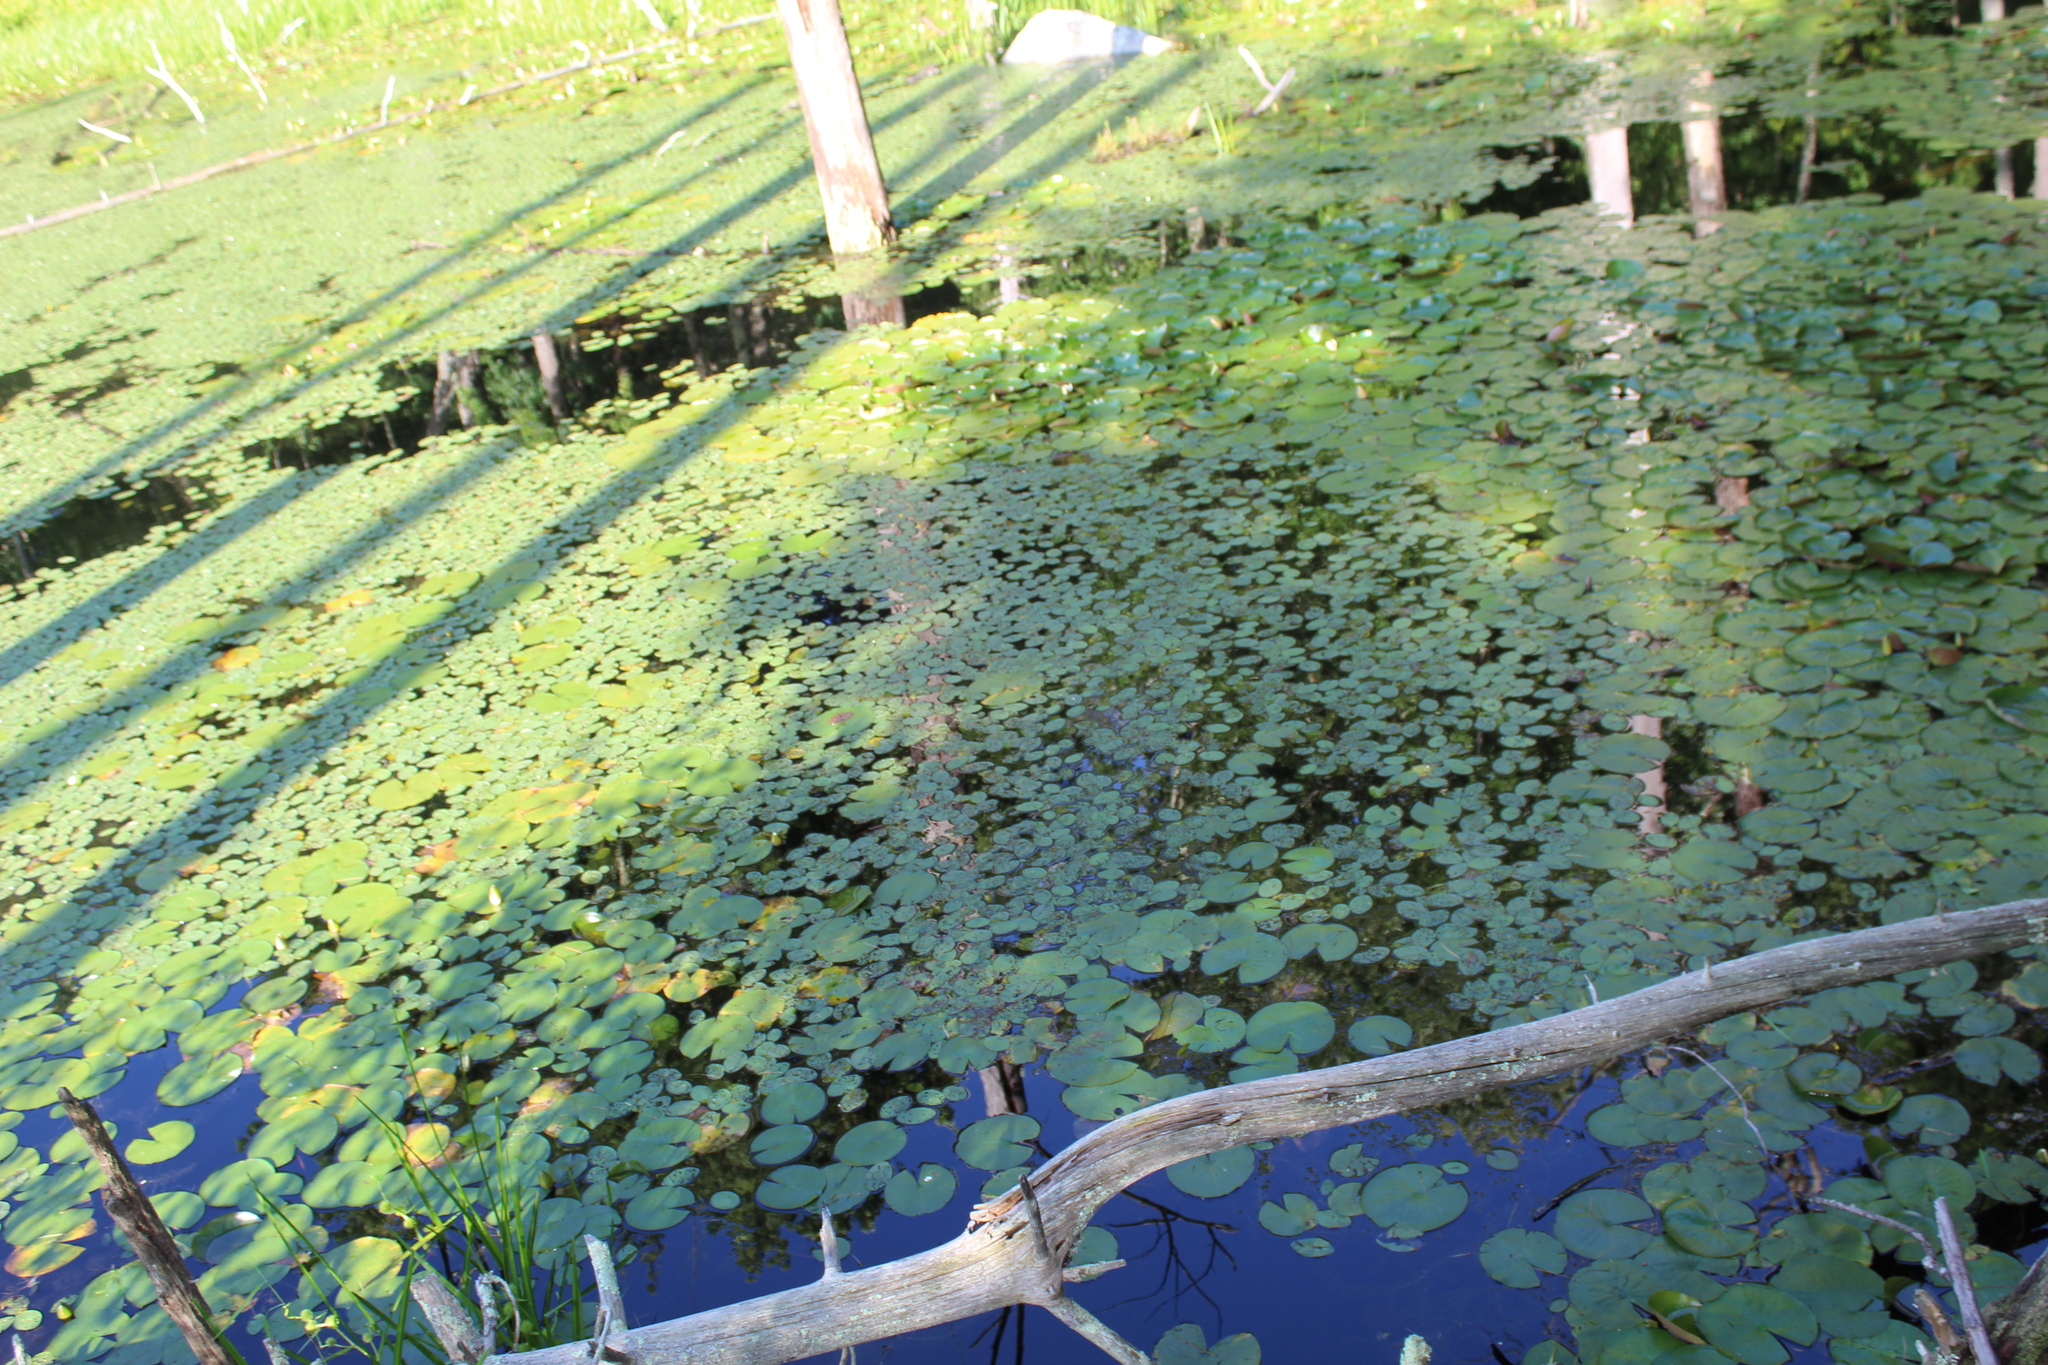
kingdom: Plantae
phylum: Tracheophyta
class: Magnoliopsida
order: Nymphaeales
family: Cabombaceae
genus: Brasenia
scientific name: Brasenia schreberi
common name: Water-shield
